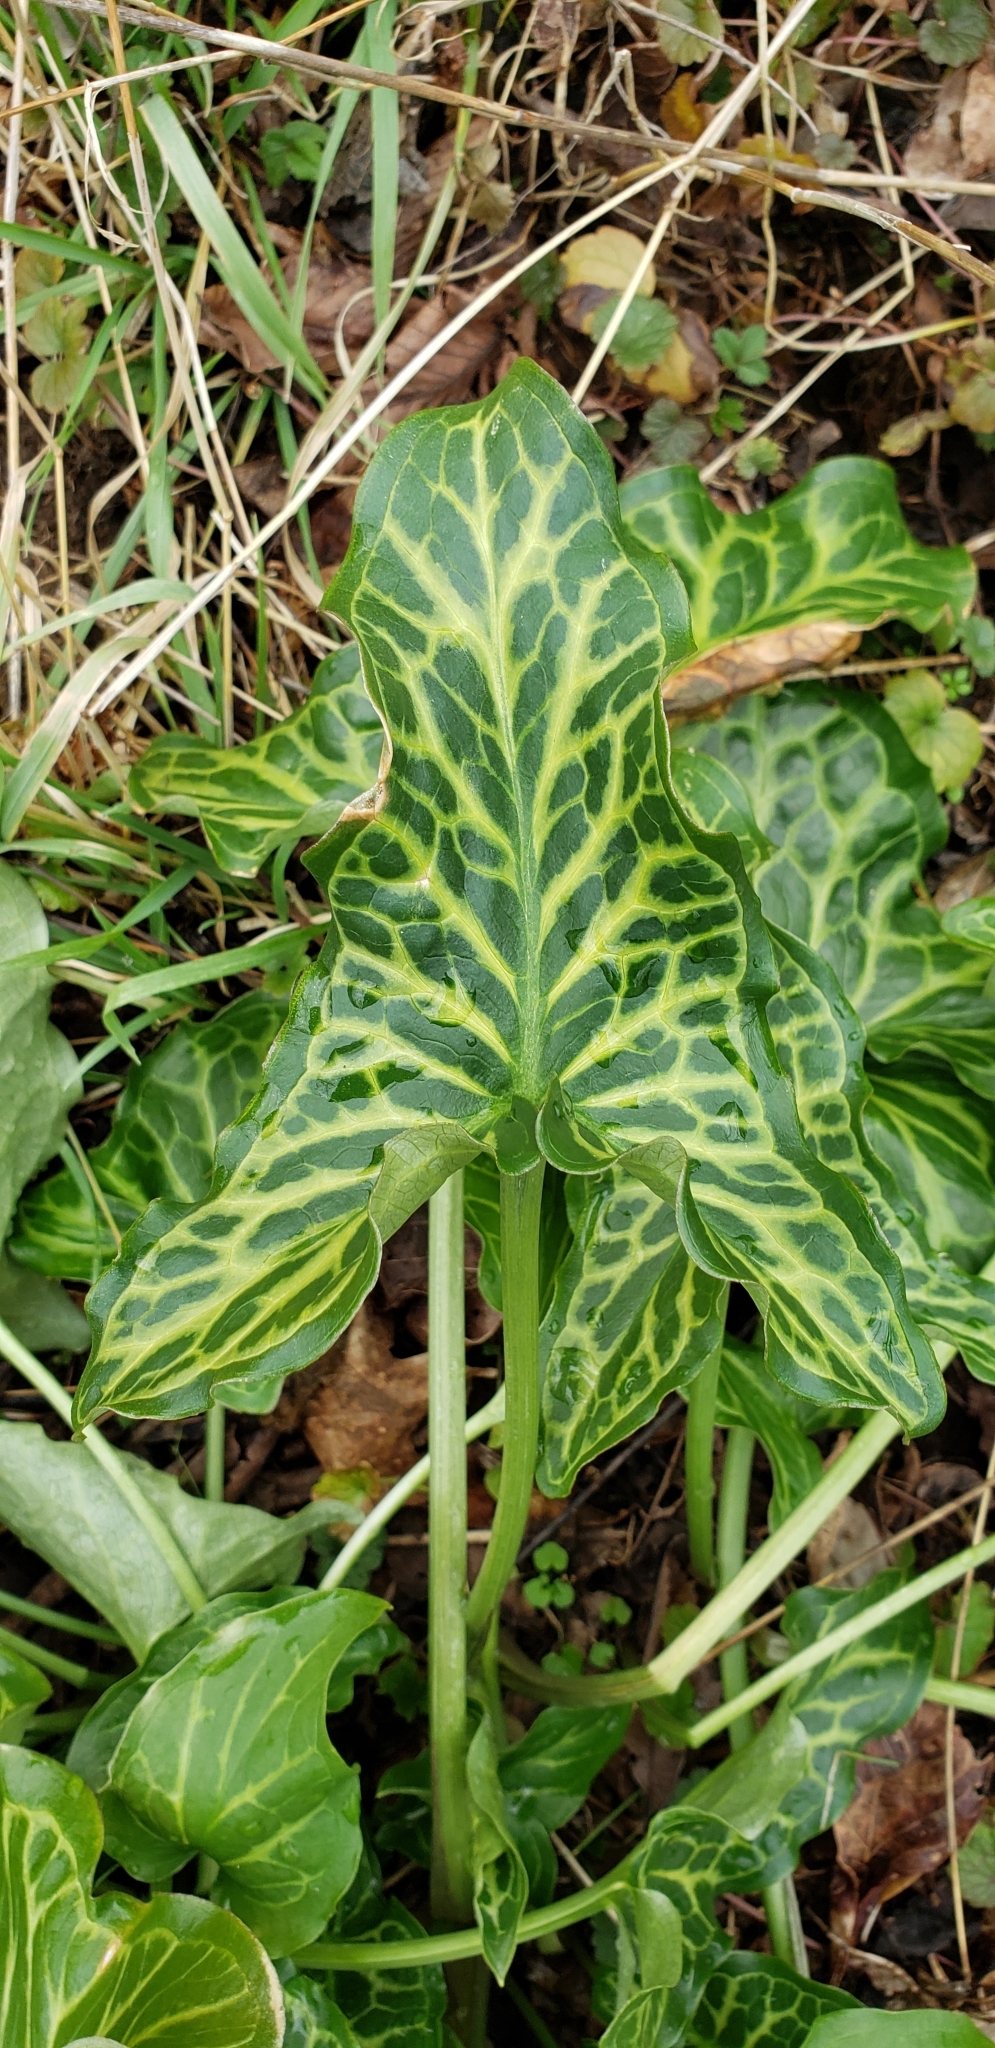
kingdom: Plantae
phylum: Tracheophyta
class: Liliopsida
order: Alismatales
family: Araceae
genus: Arum
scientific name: Arum italicum
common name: Italian lords-and-ladies
